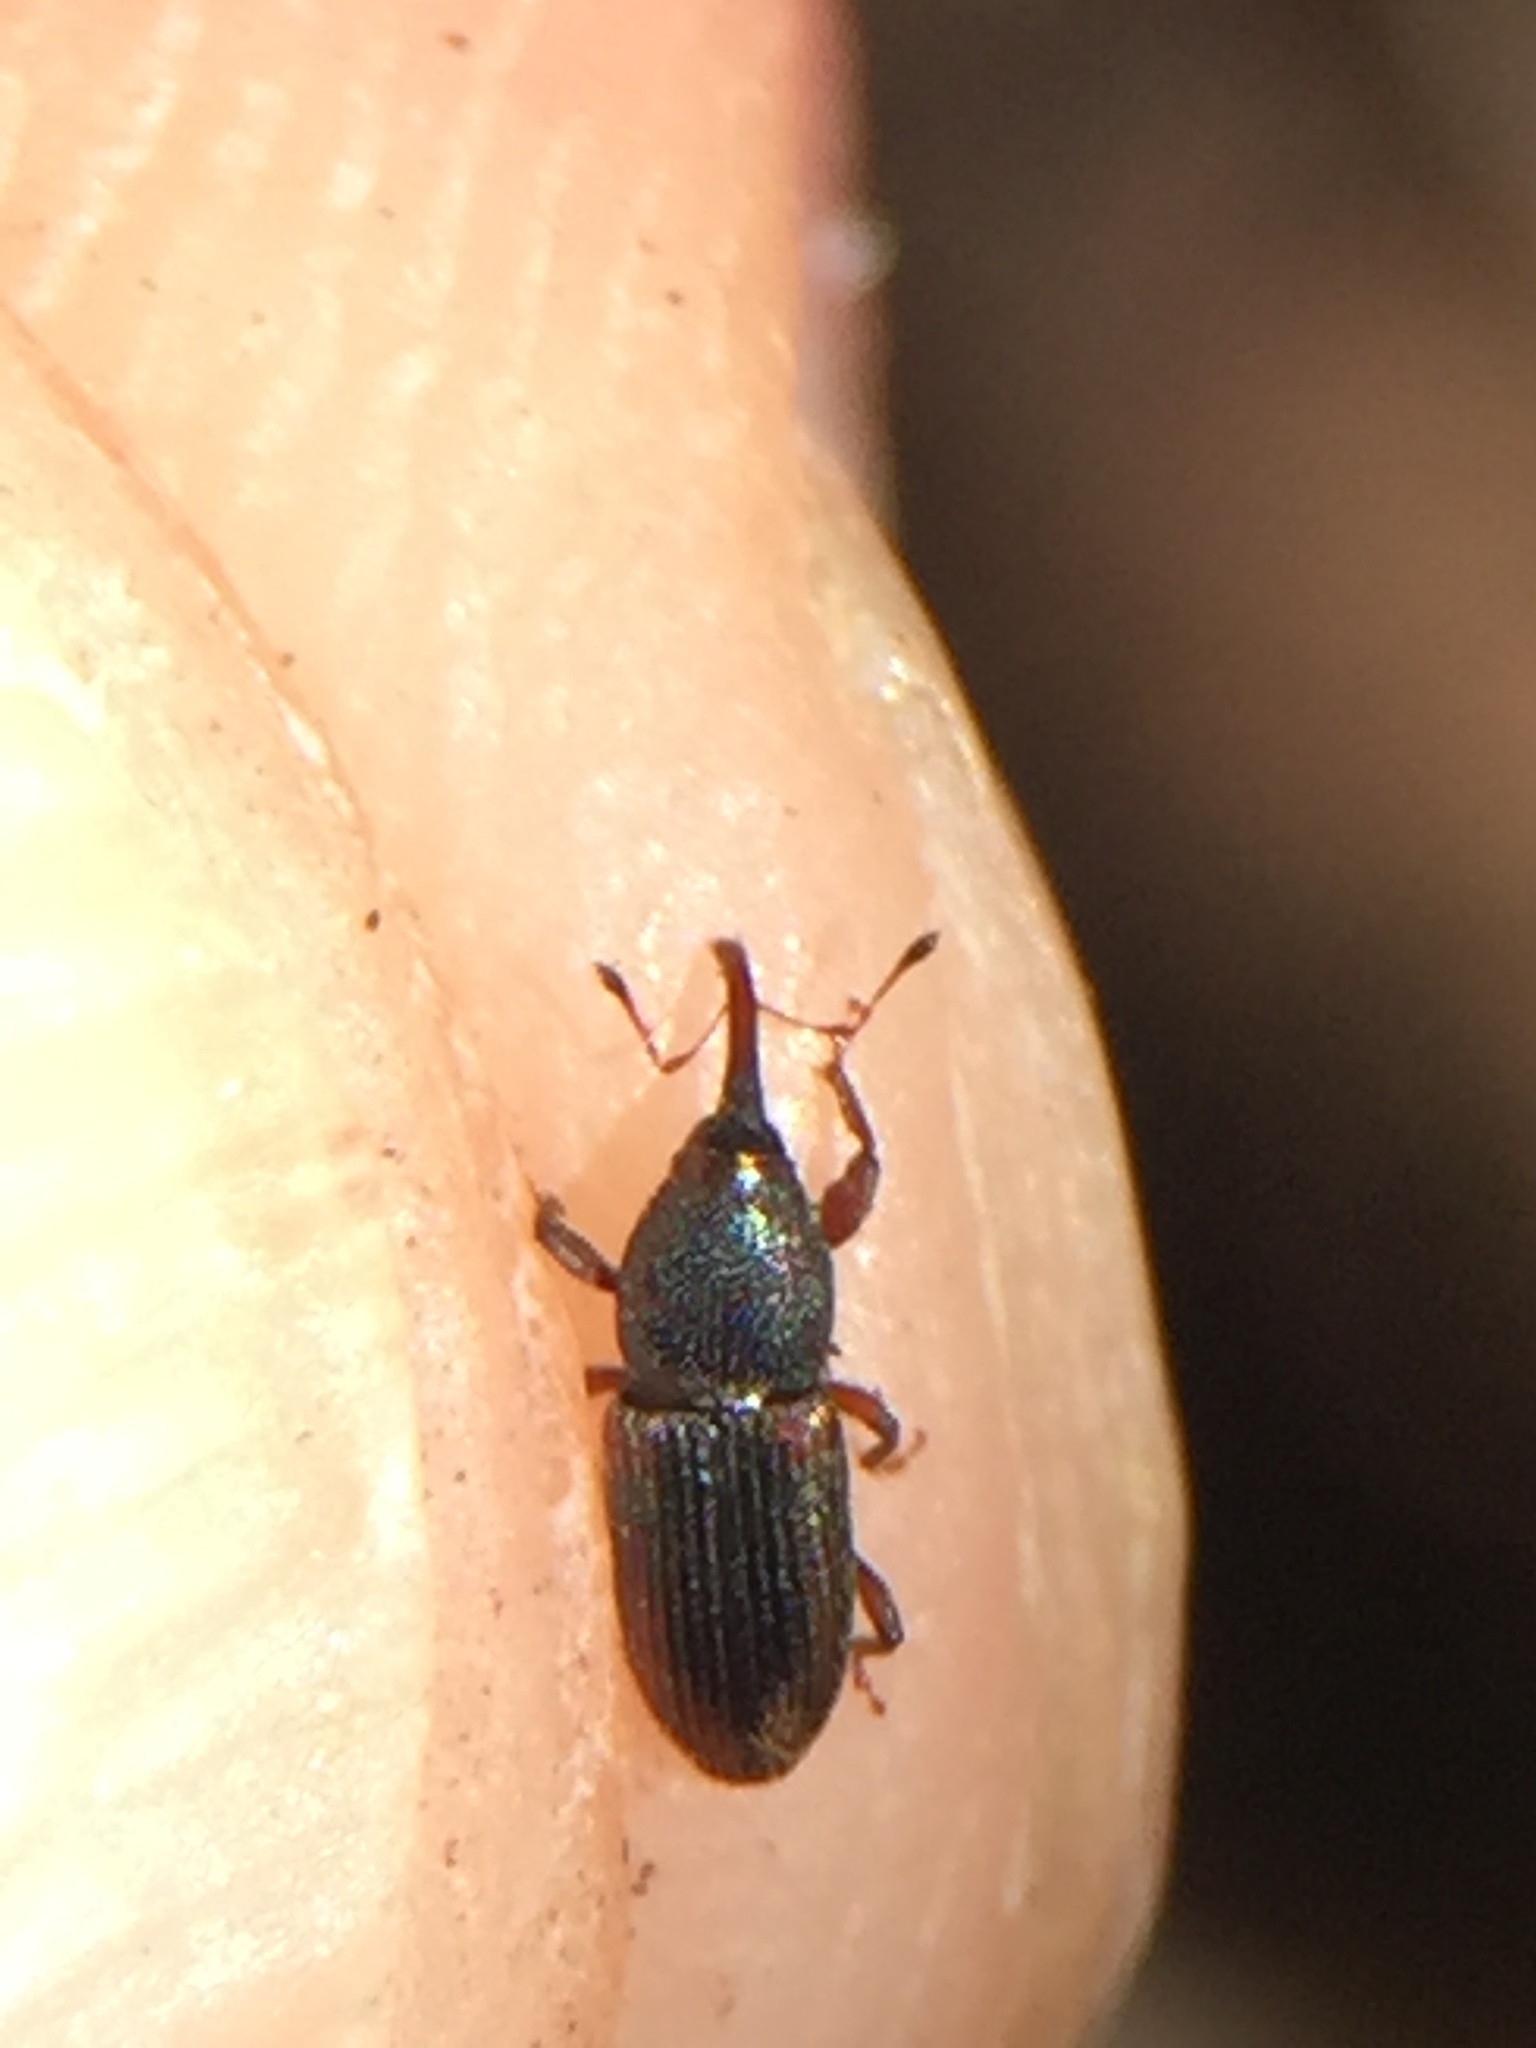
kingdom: Animalia
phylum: Arthropoda
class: Insecta
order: Coleoptera
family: Curculionidae
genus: Arecophaga
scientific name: Arecophaga varia
